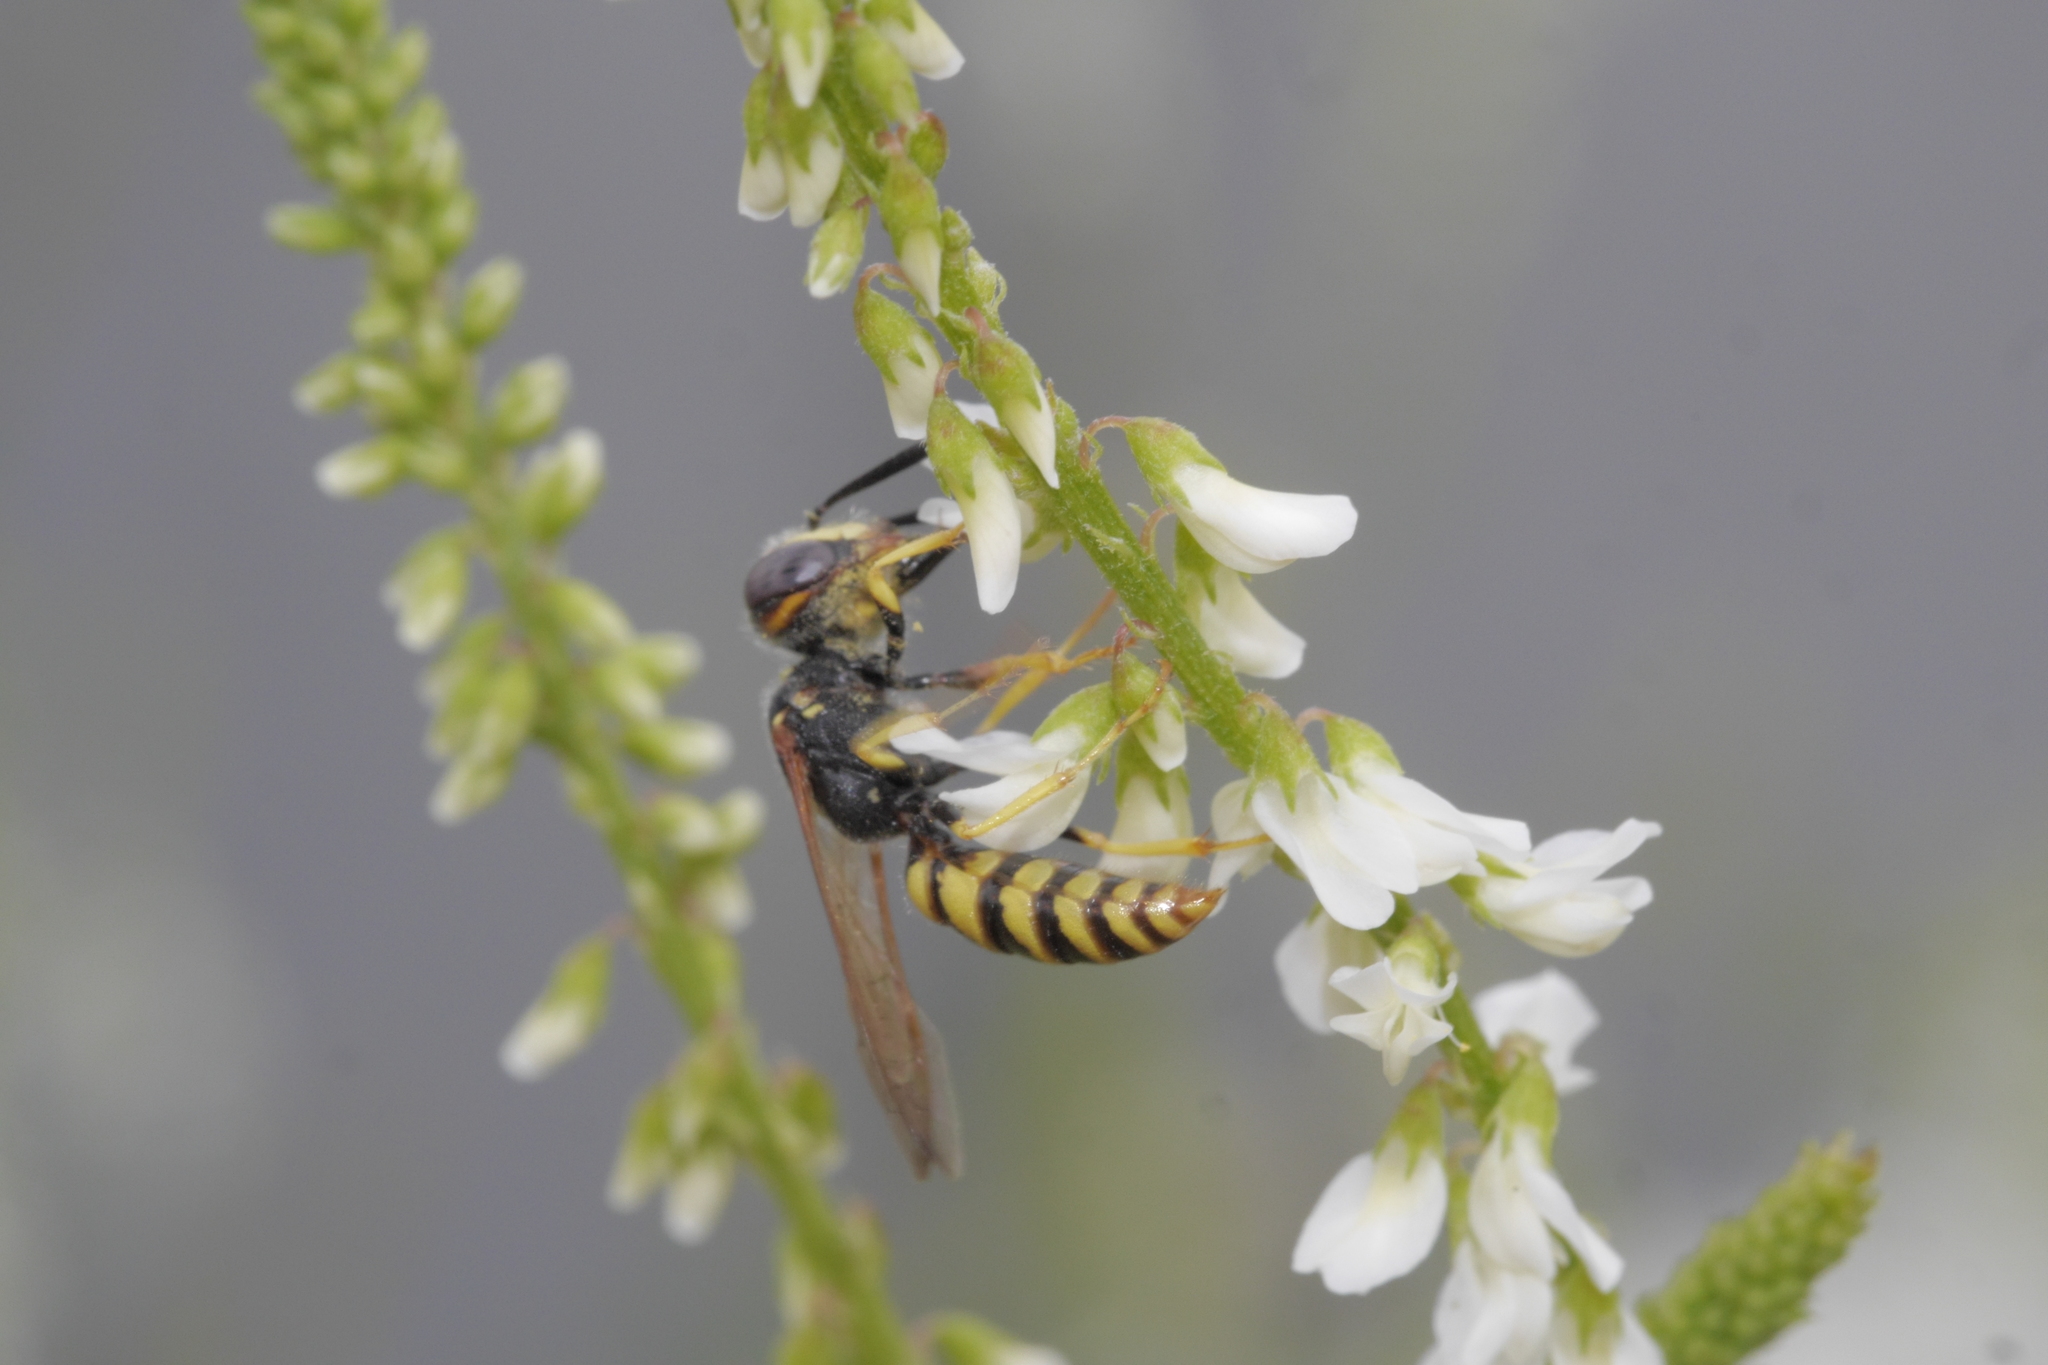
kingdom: Animalia
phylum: Arthropoda
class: Insecta
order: Hymenoptera
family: Crabronidae
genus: Philanthus
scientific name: Philanthus triangulum
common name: Bee wolf
